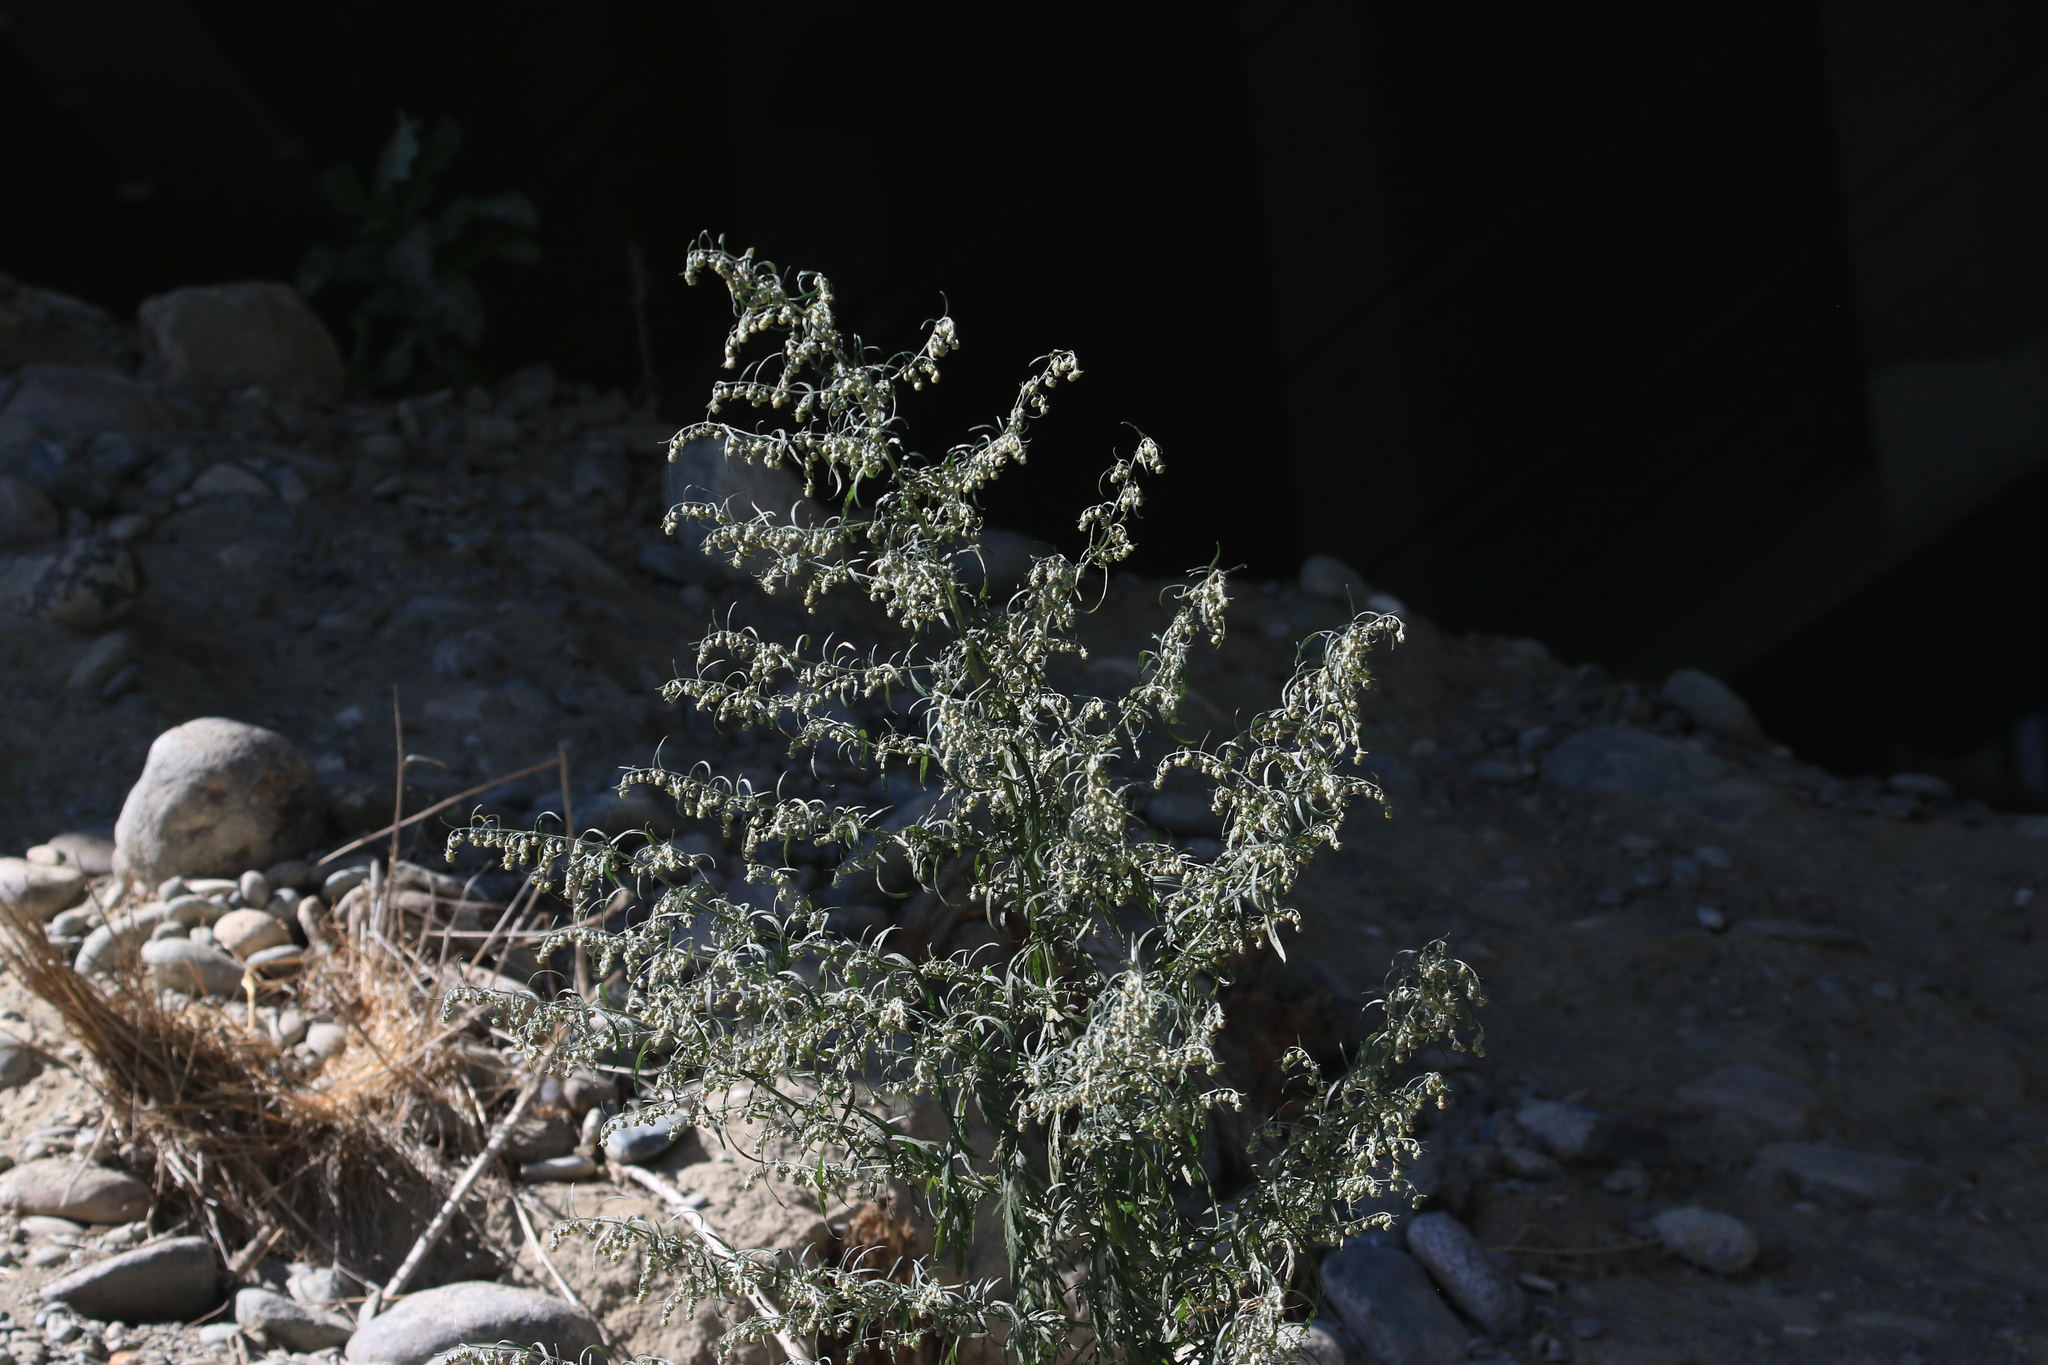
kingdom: Plantae
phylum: Tracheophyta
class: Magnoliopsida
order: Asterales
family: Asteraceae
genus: Artemisia
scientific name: Artemisia sieversiana
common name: Sieversian wormwood
